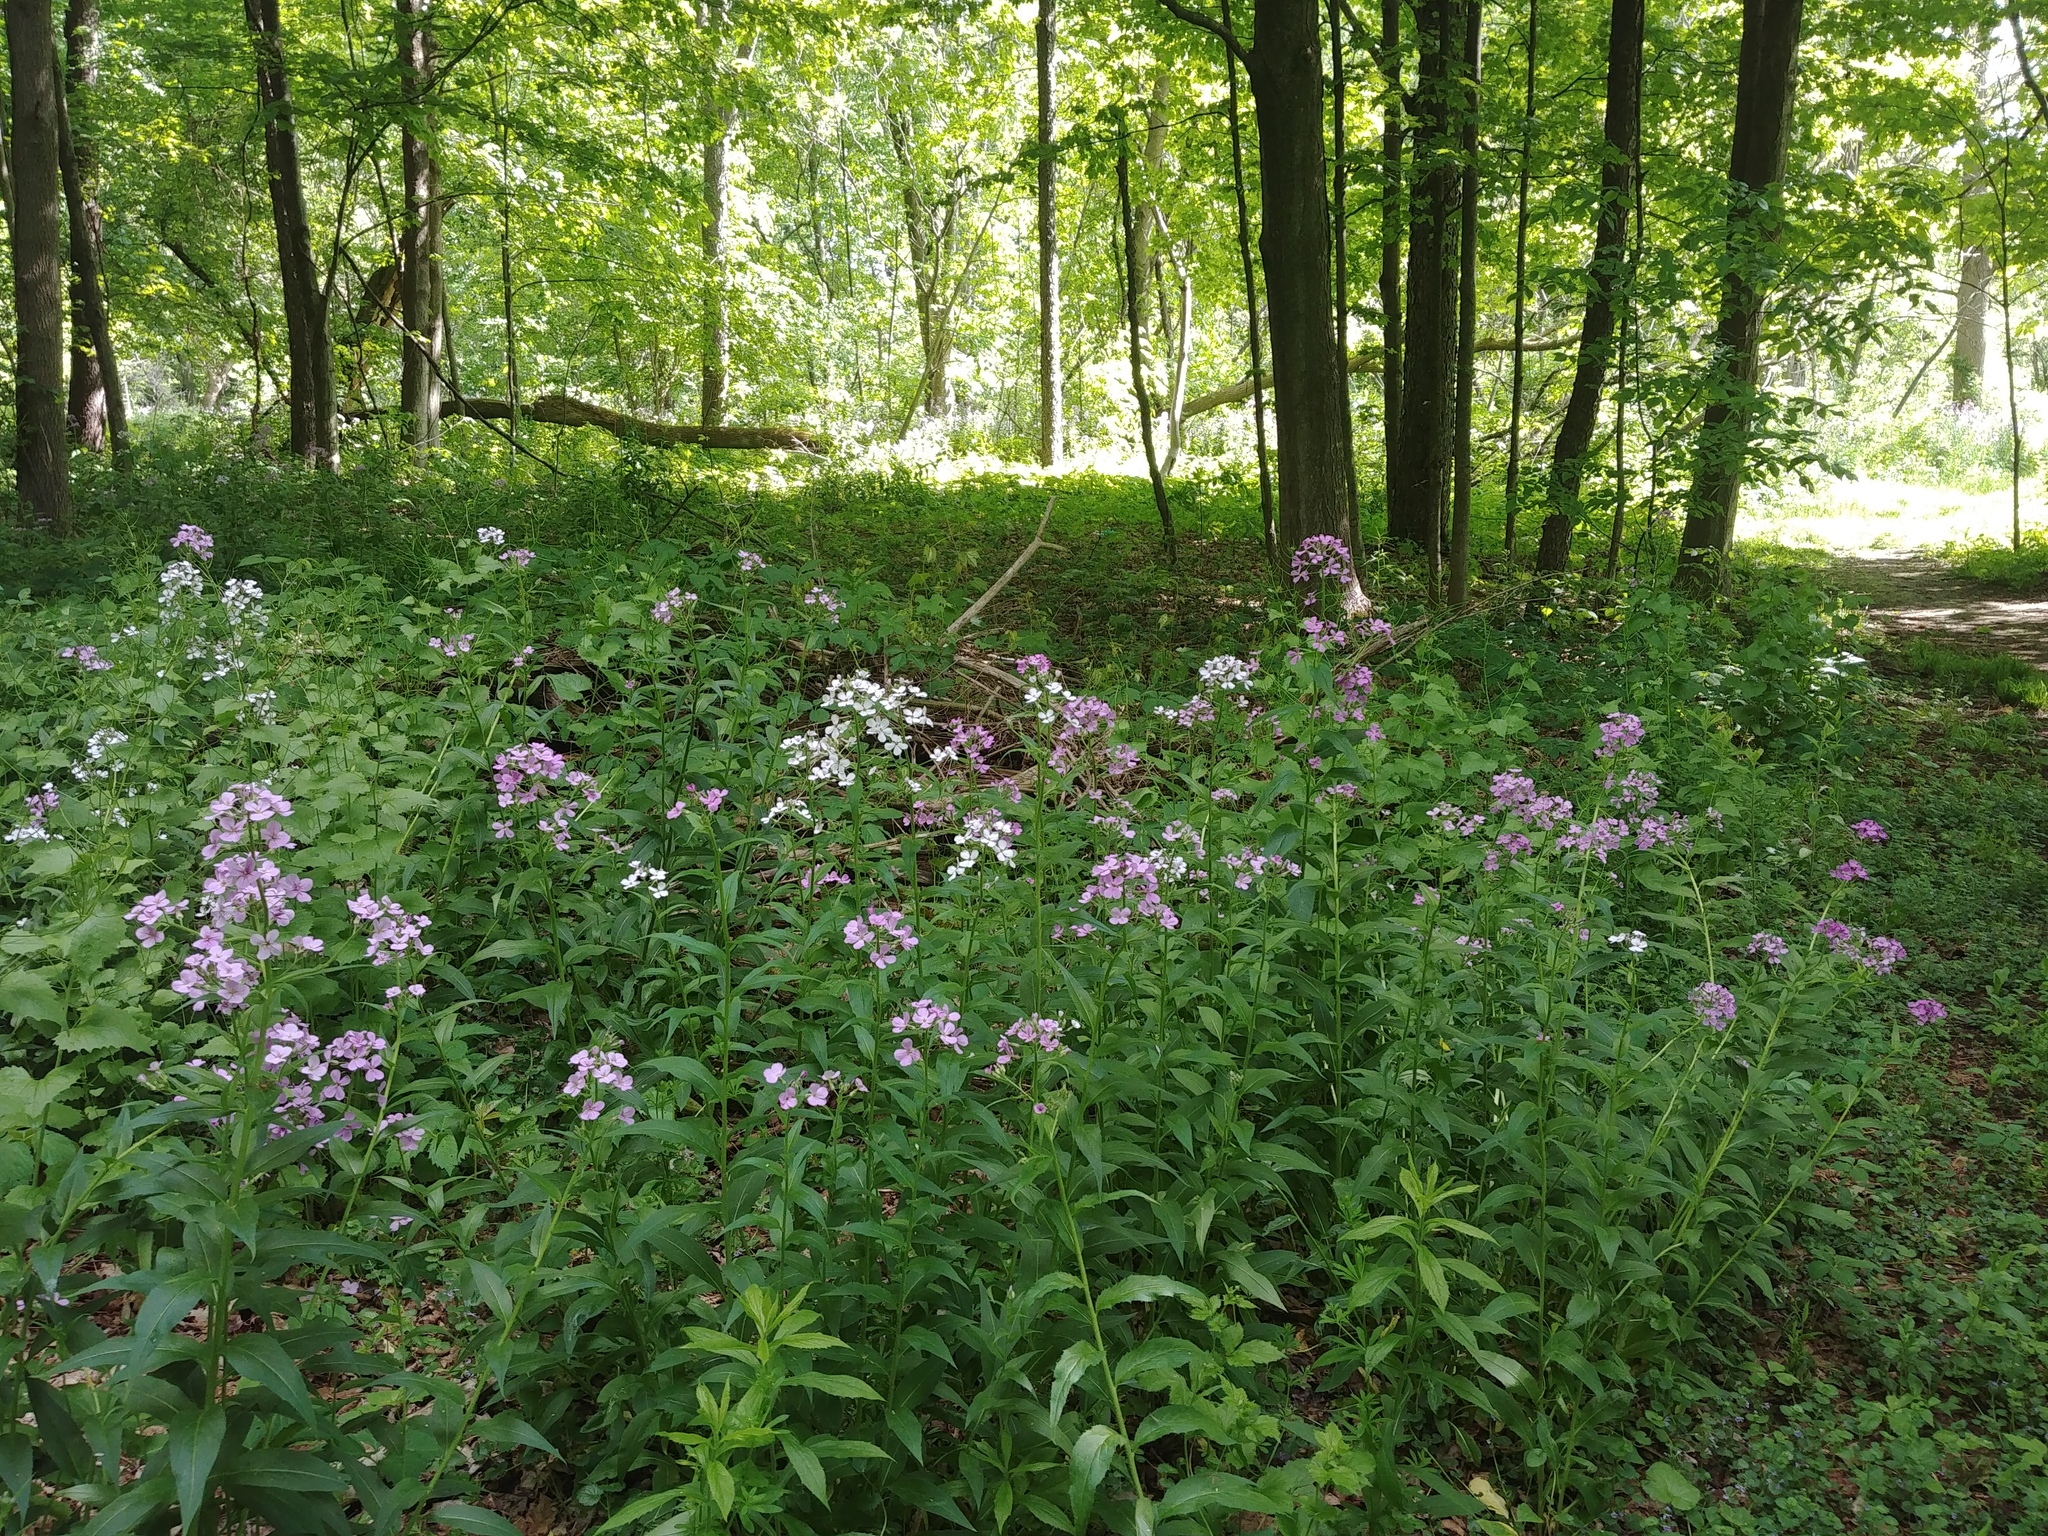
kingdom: Plantae
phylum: Tracheophyta
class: Magnoliopsida
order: Brassicales
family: Brassicaceae
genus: Hesperis
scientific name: Hesperis matronalis
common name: Dame's-violet
